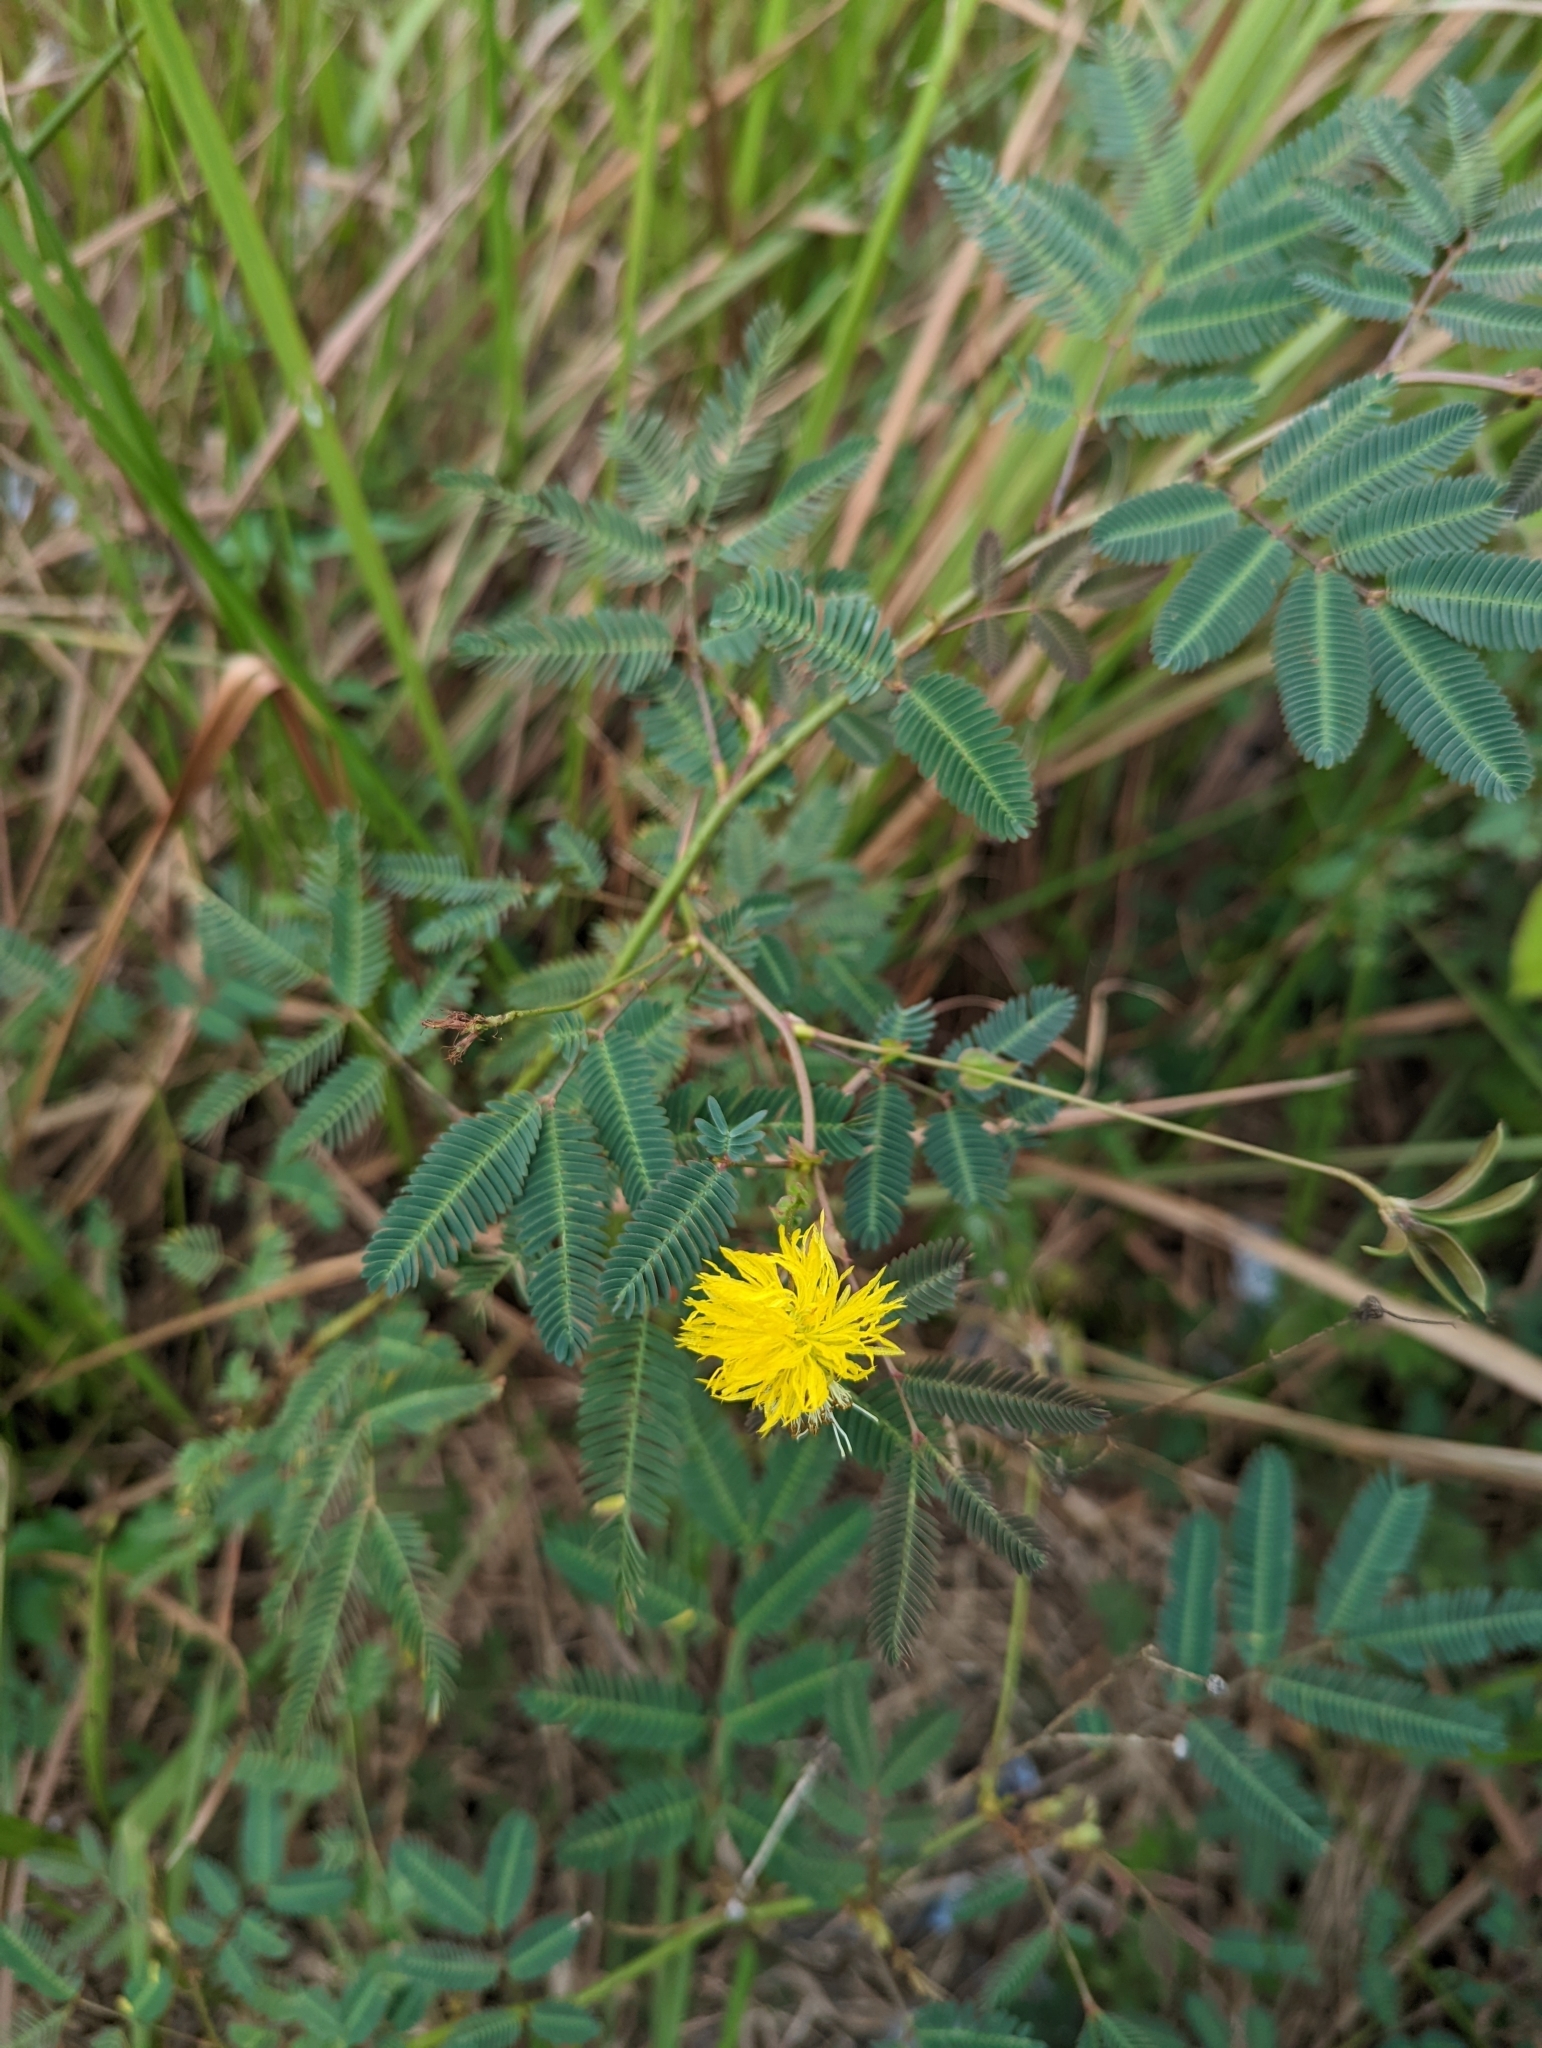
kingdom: Plantae
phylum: Tracheophyta
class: Magnoliopsida
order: Fabales
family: Fabaceae
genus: Neptunia
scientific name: Neptunia plena
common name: Dead and awake
